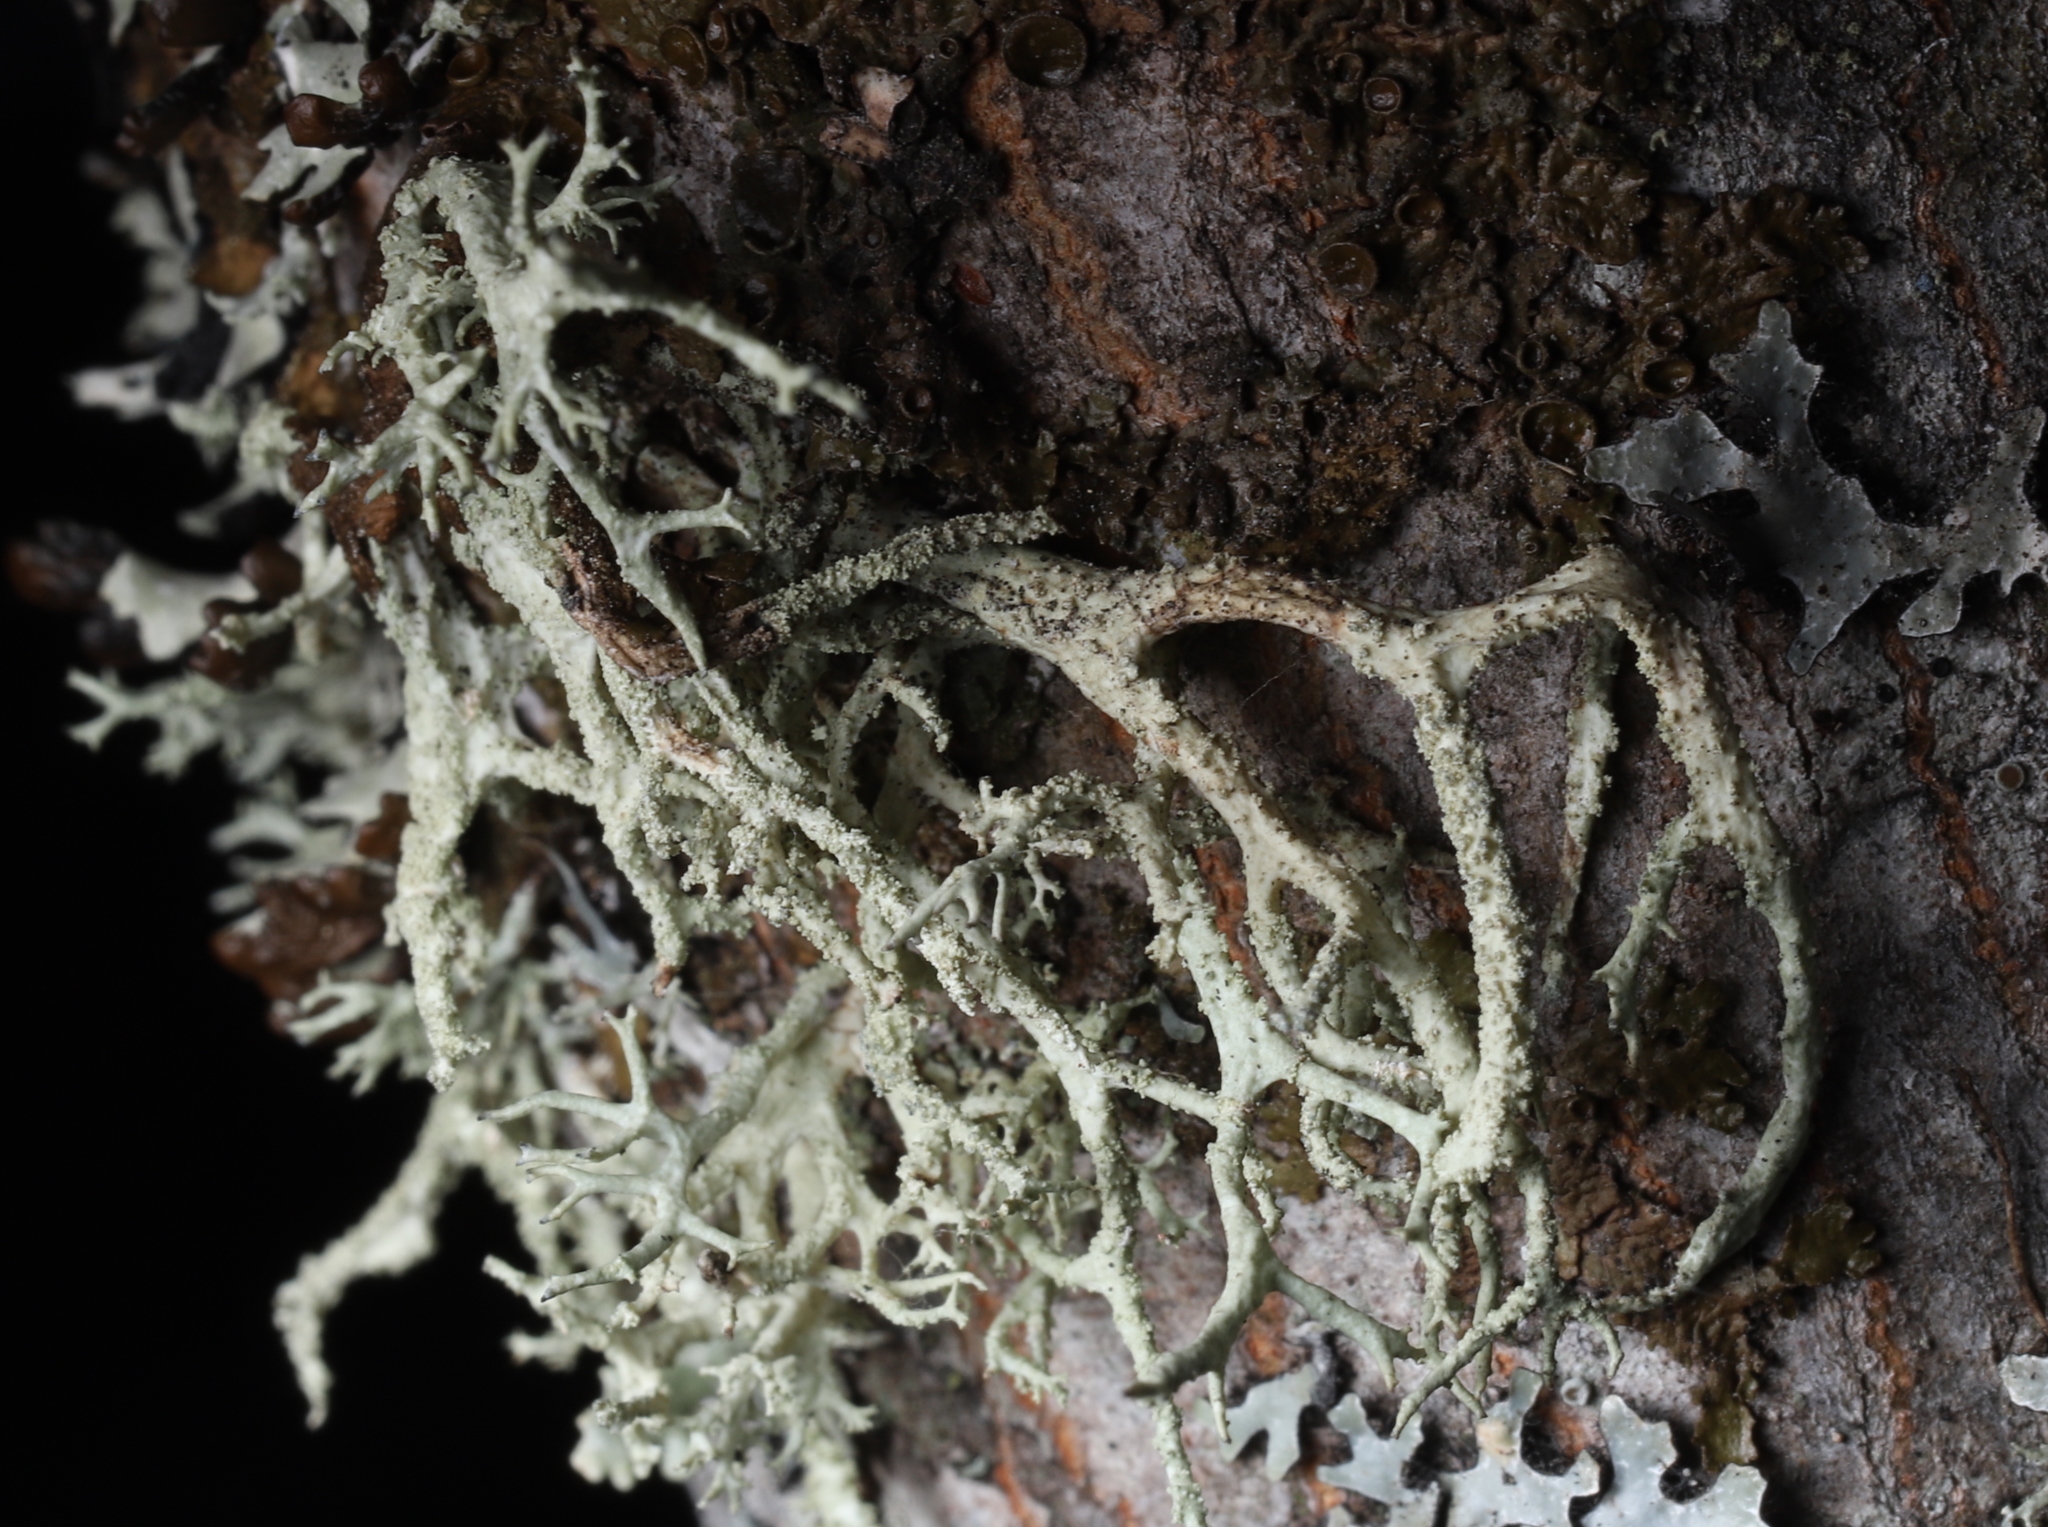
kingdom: Fungi
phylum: Ascomycota
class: Lecanoromycetes
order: Lecanorales
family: Parmeliaceae
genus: Evernia
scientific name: Evernia mesomorpha
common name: Boreal oak moss lichen
